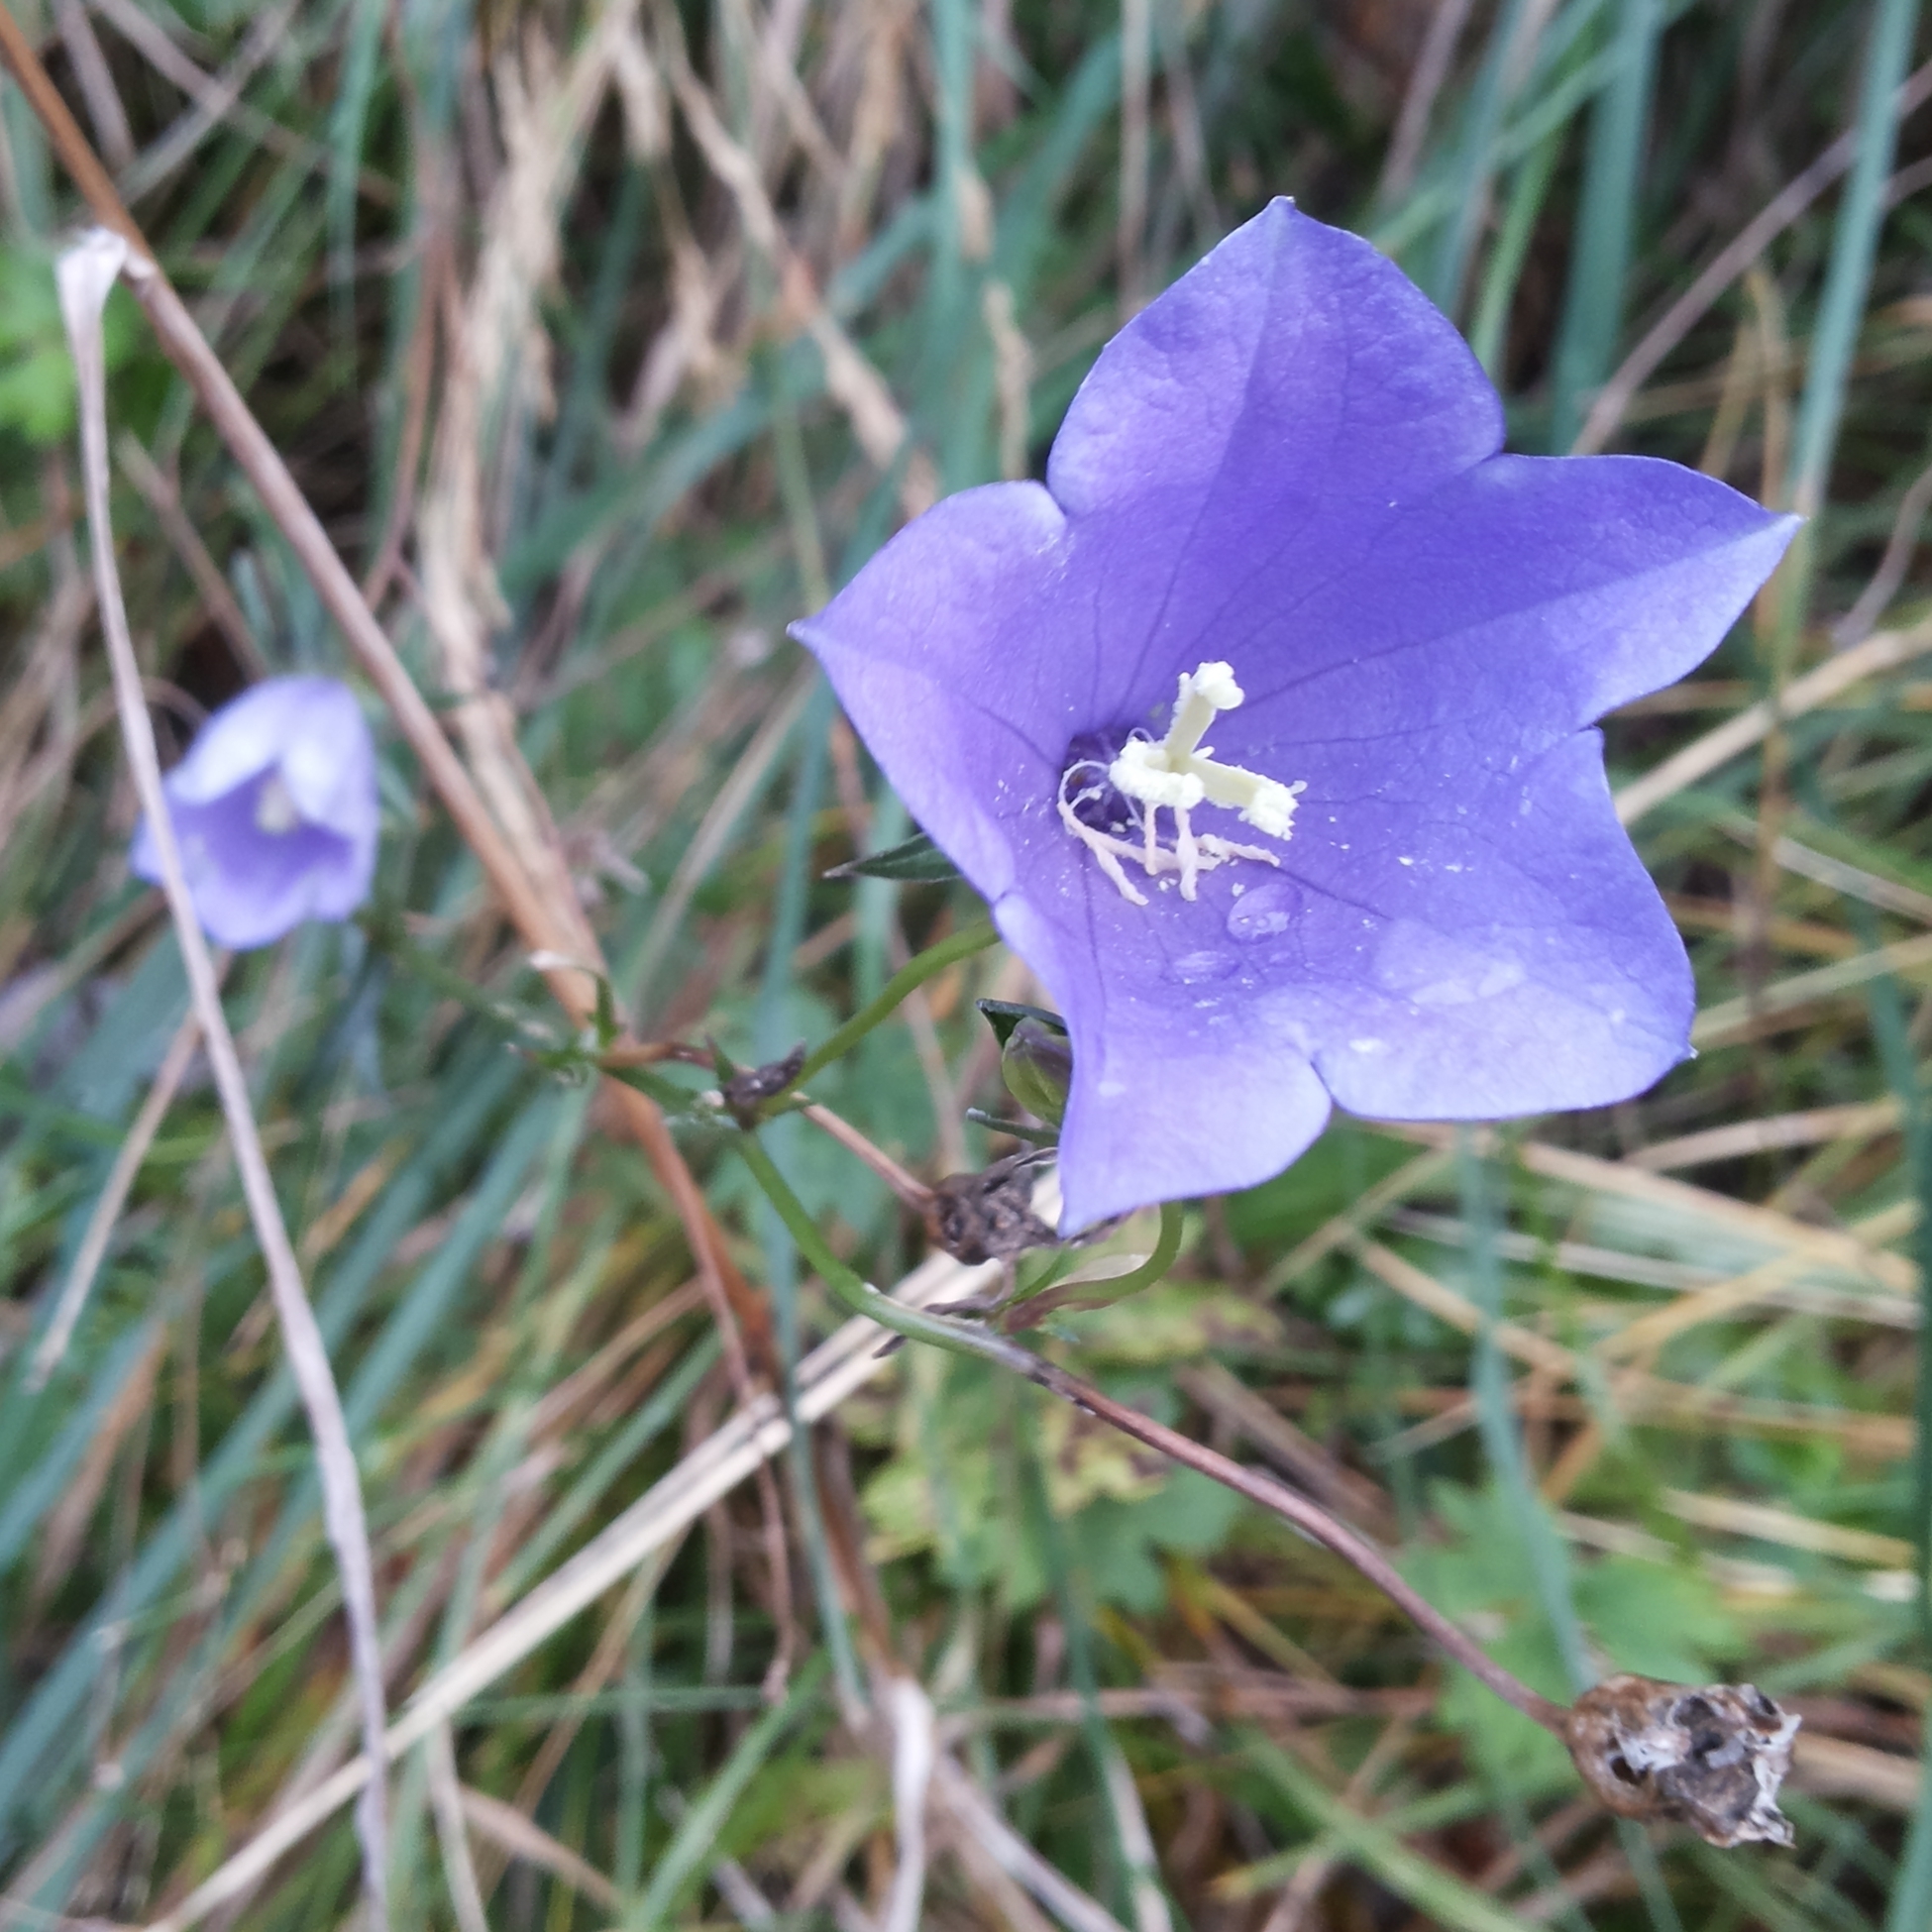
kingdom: Plantae
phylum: Tracheophyta
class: Magnoliopsida
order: Asterales
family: Campanulaceae
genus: Campanula
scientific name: Campanula persicifolia
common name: Peach-leaved bellflower
